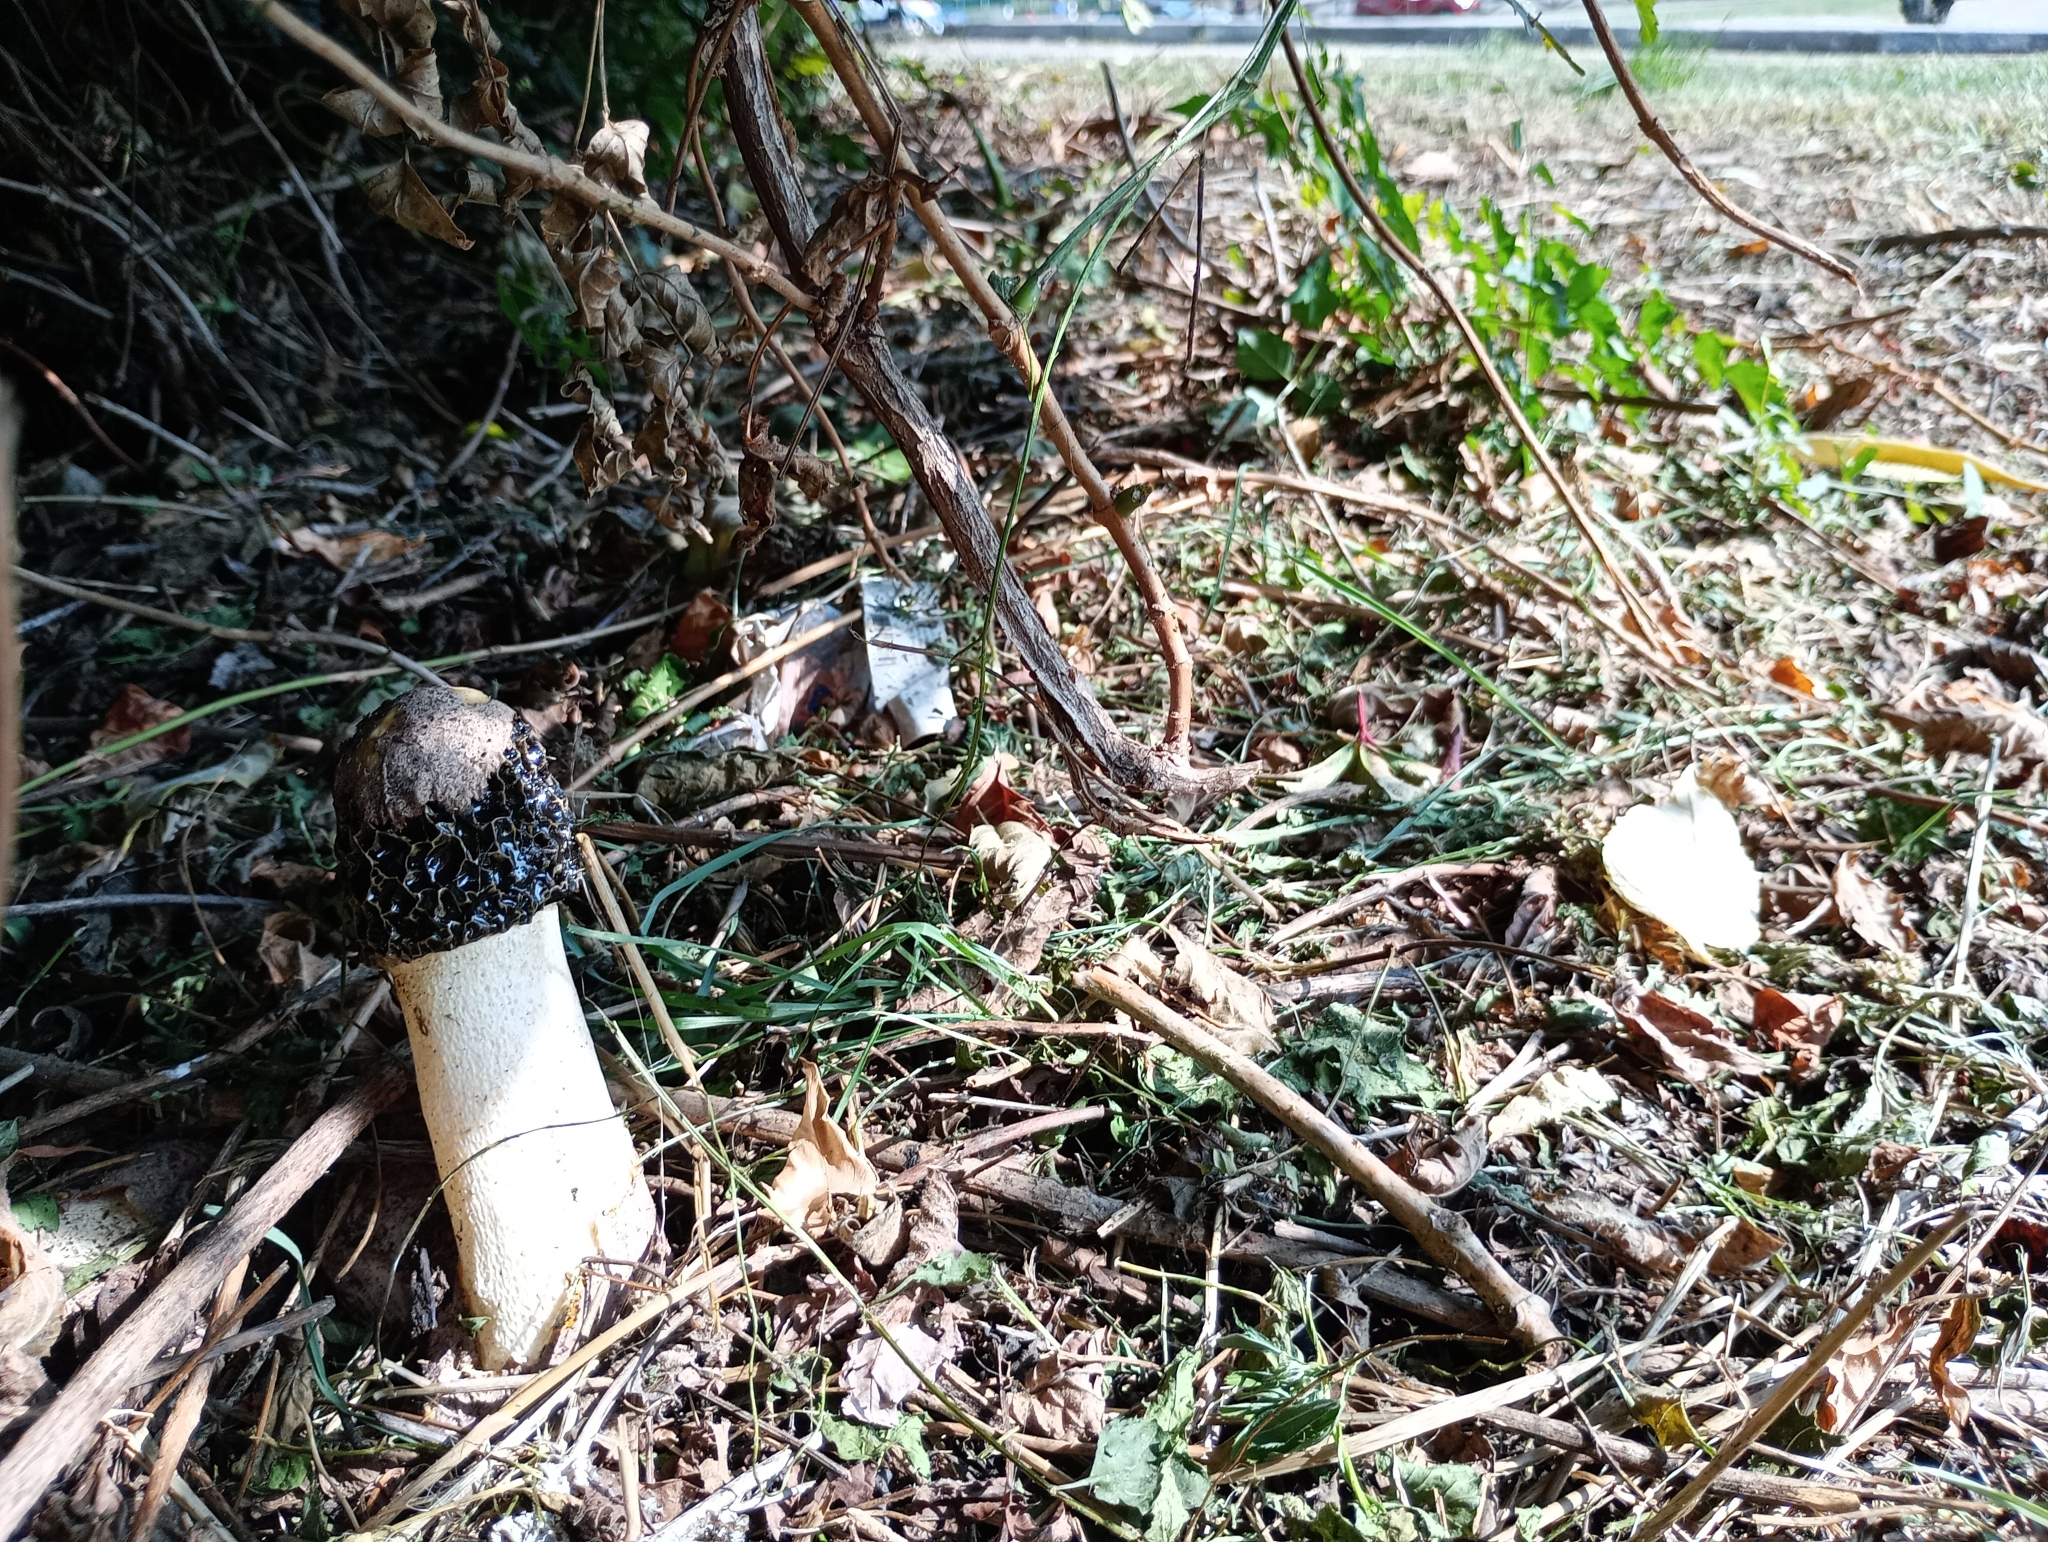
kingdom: Fungi
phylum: Basidiomycota
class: Agaricomycetes
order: Phallales
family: Phallaceae
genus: Phallus
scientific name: Phallus hadriani
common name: Sand stinkhorn
